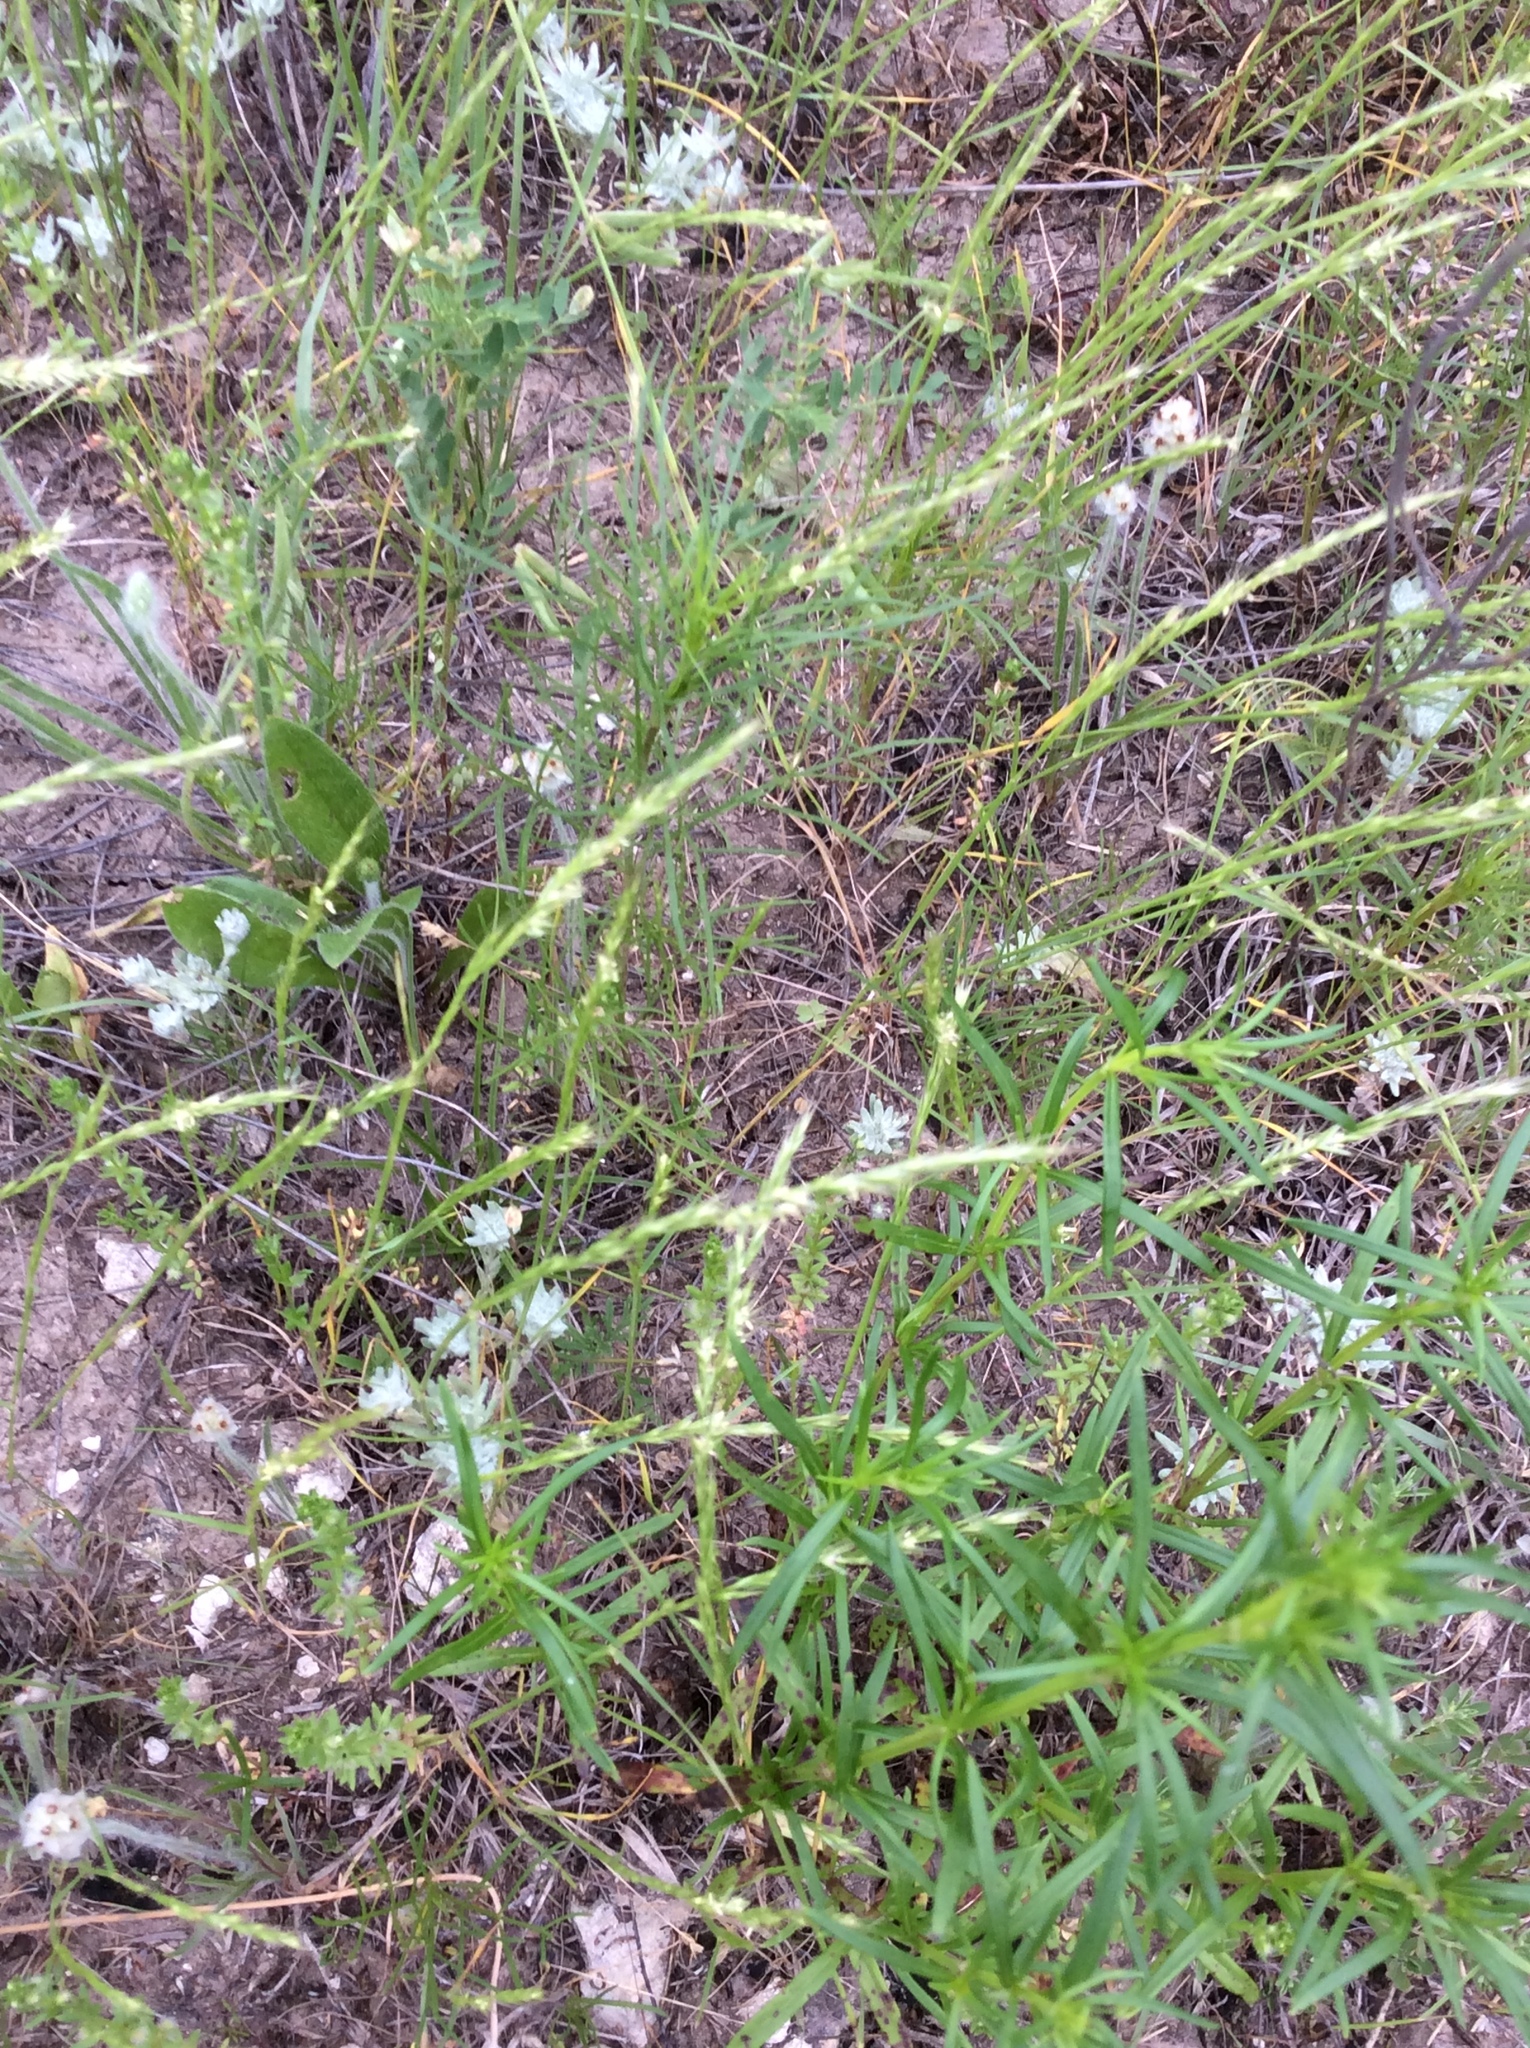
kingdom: Plantae
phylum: Tracheophyta
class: Magnoliopsida
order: Asterales
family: Asteraceae
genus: Diaperia
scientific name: Diaperia prolifera
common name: Big-head rabbit-tobacco
